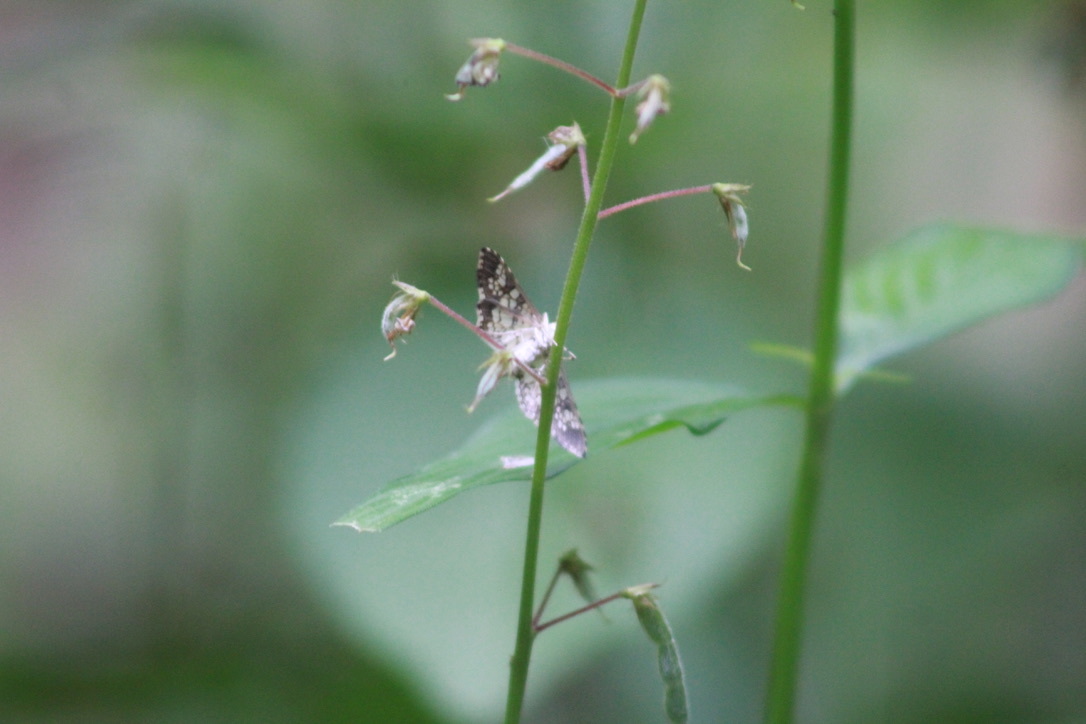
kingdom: Animalia
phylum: Arthropoda
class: Insecta
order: Lepidoptera
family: Crambidae
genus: Samea
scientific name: Samea ecclesialis
